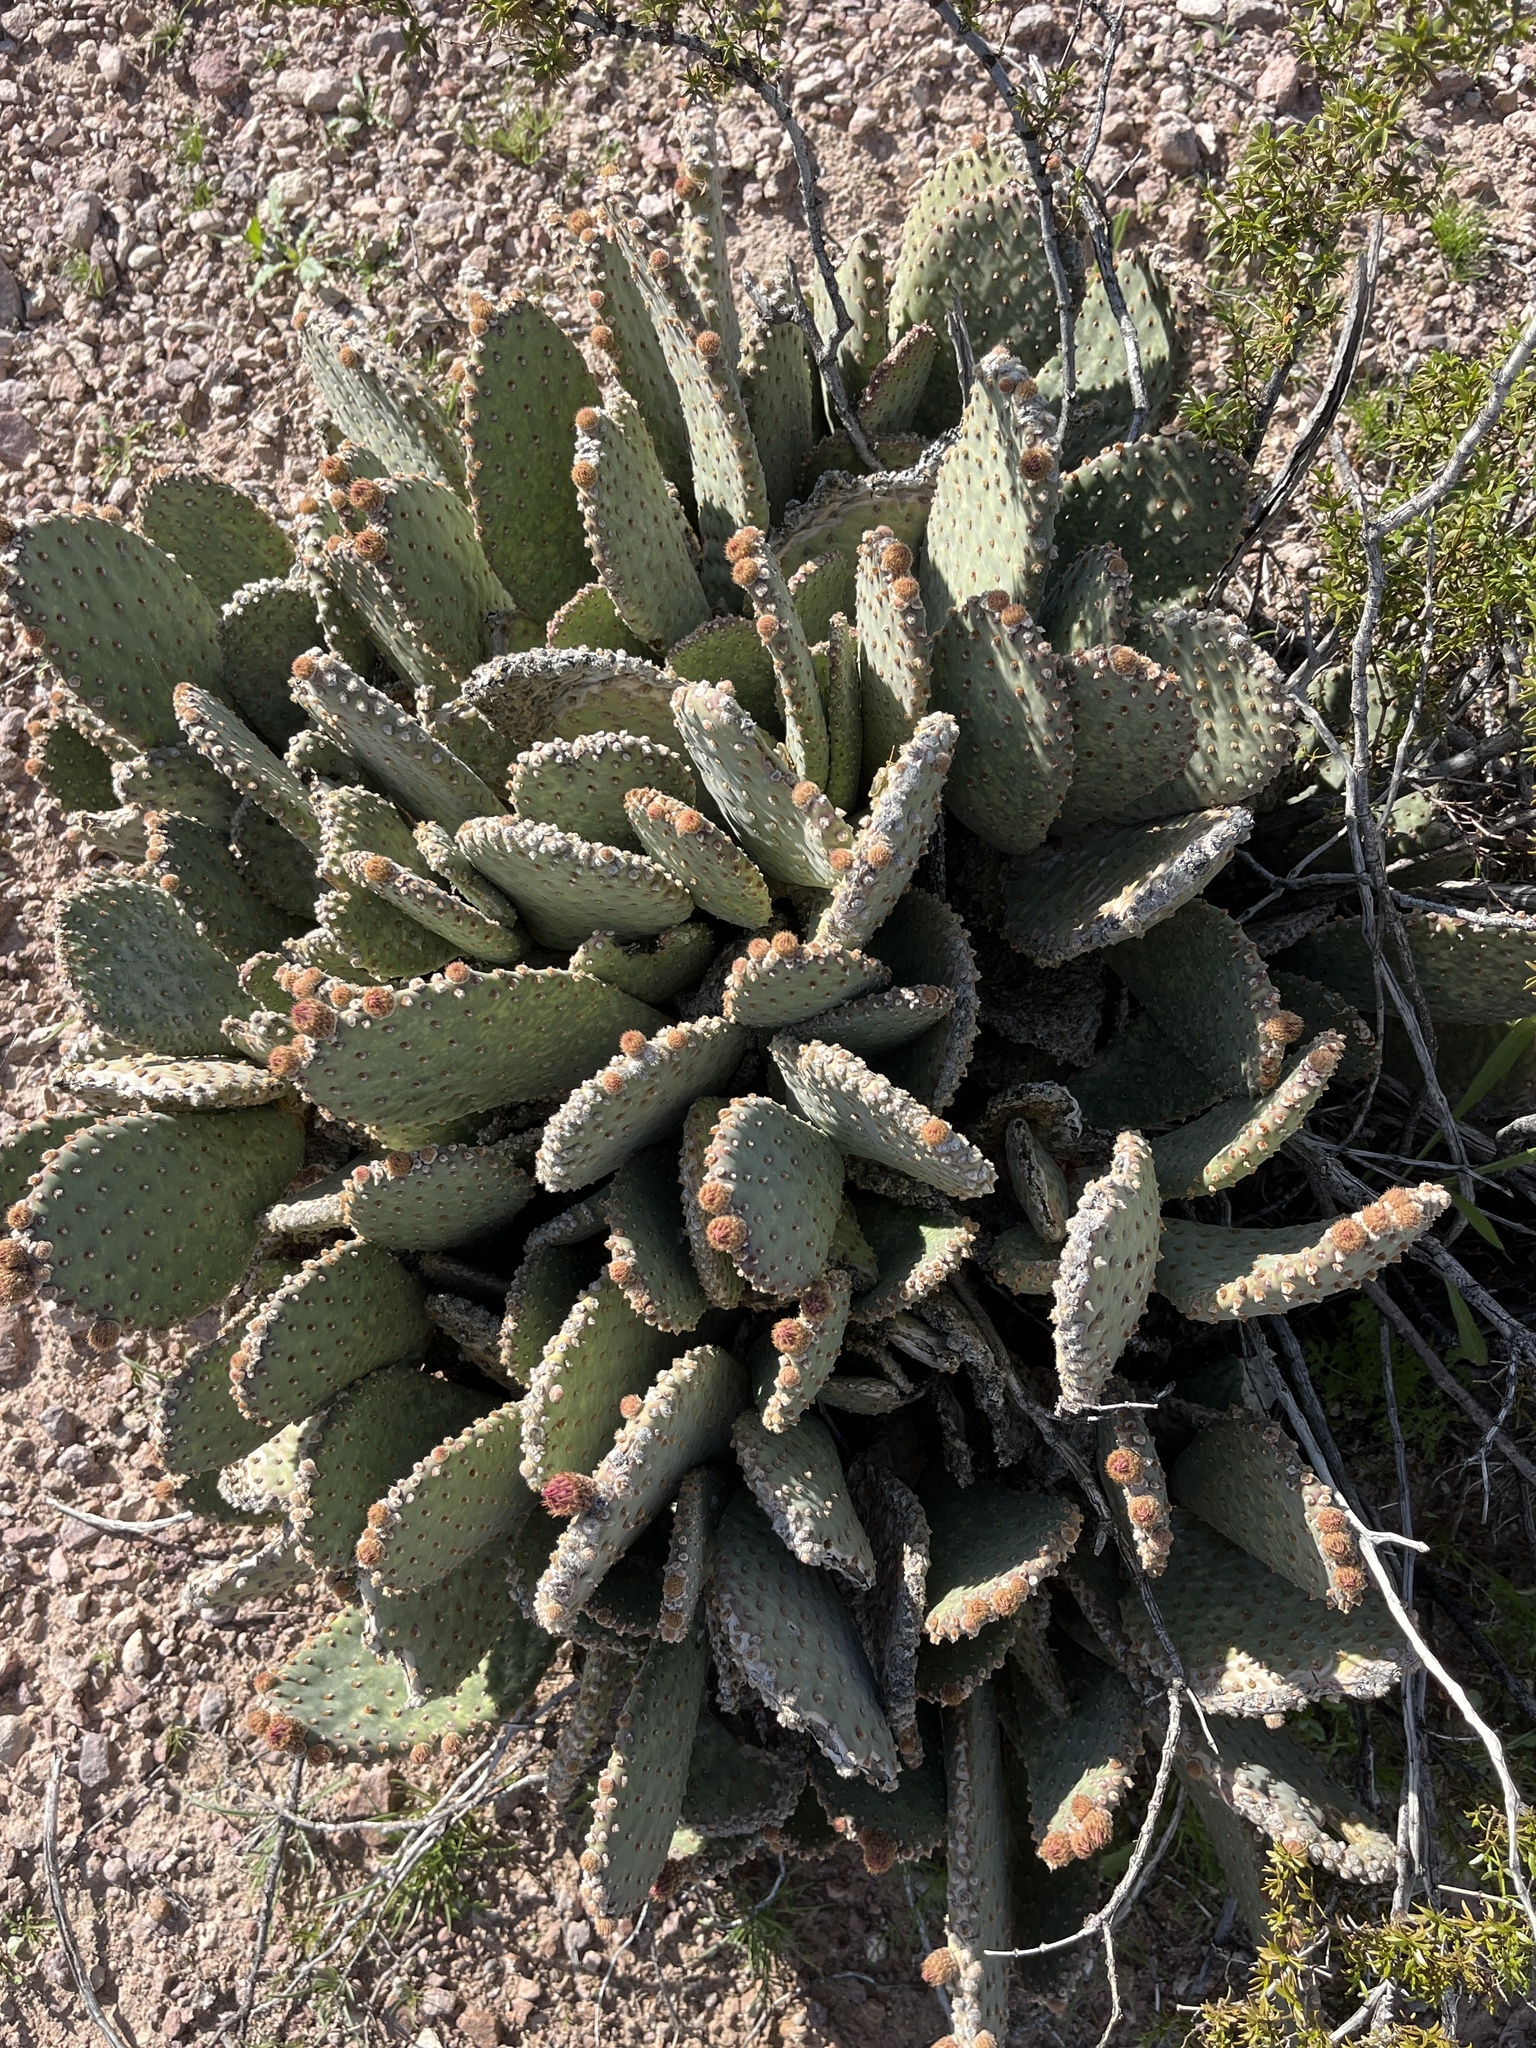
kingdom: Plantae
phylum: Tracheophyta
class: Magnoliopsida
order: Caryophyllales
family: Cactaceae
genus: Opuntia
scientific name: Opuntia basilaris
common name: Beavertail prickly-pear
